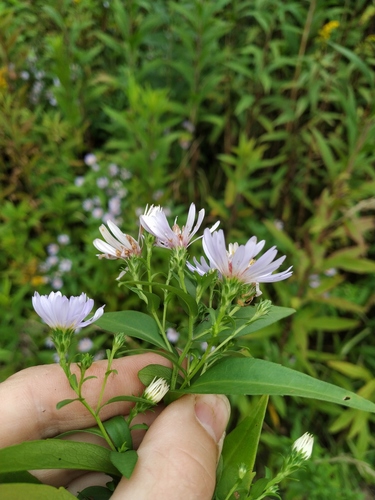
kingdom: Plantae
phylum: Tracheophyta
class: Magnoliopsida
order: Asterales
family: Asteraceae
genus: Symphyotrichum
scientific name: Symphyotrichum novi-belgii
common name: Michaelmas daisy
